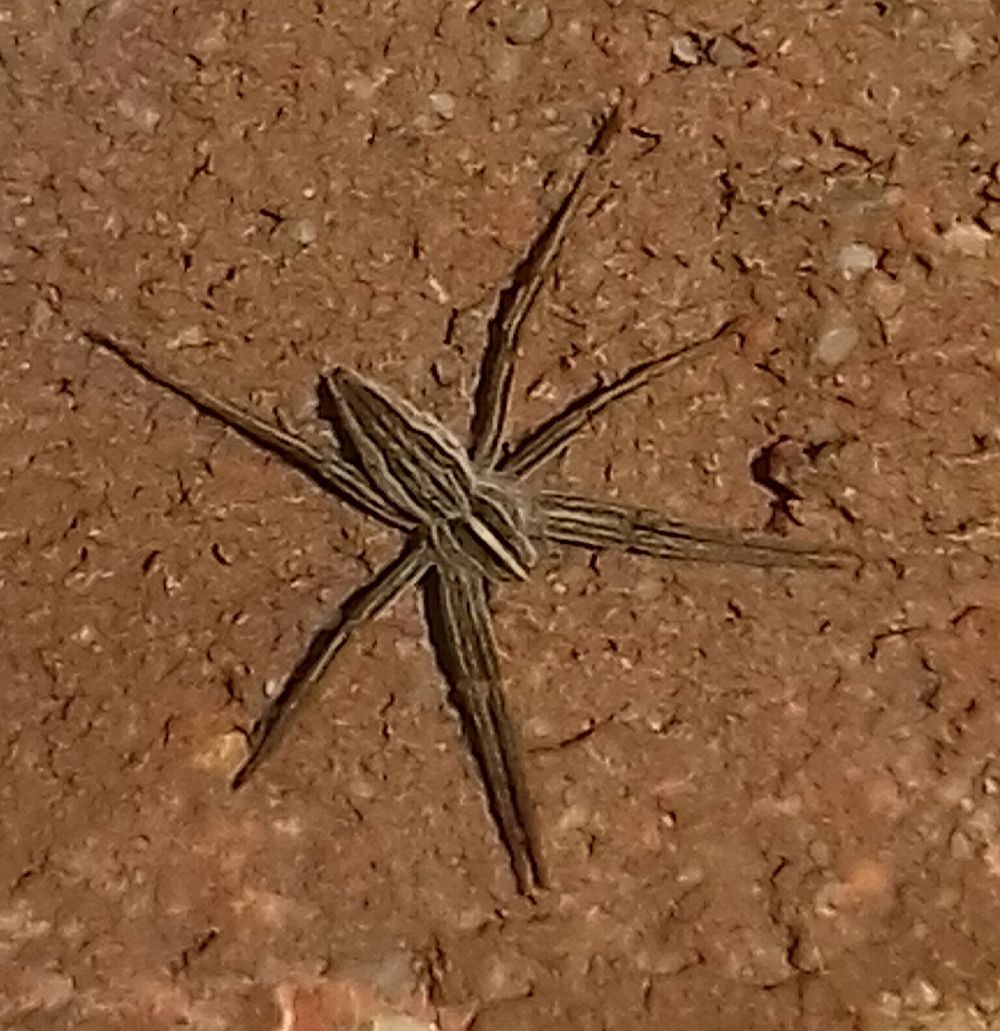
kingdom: Animalia
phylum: Arthropoda
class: Arachnida
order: Araneae
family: Pisauridae
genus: Pisaura
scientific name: Pisaura mirabilis
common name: Tent spider
